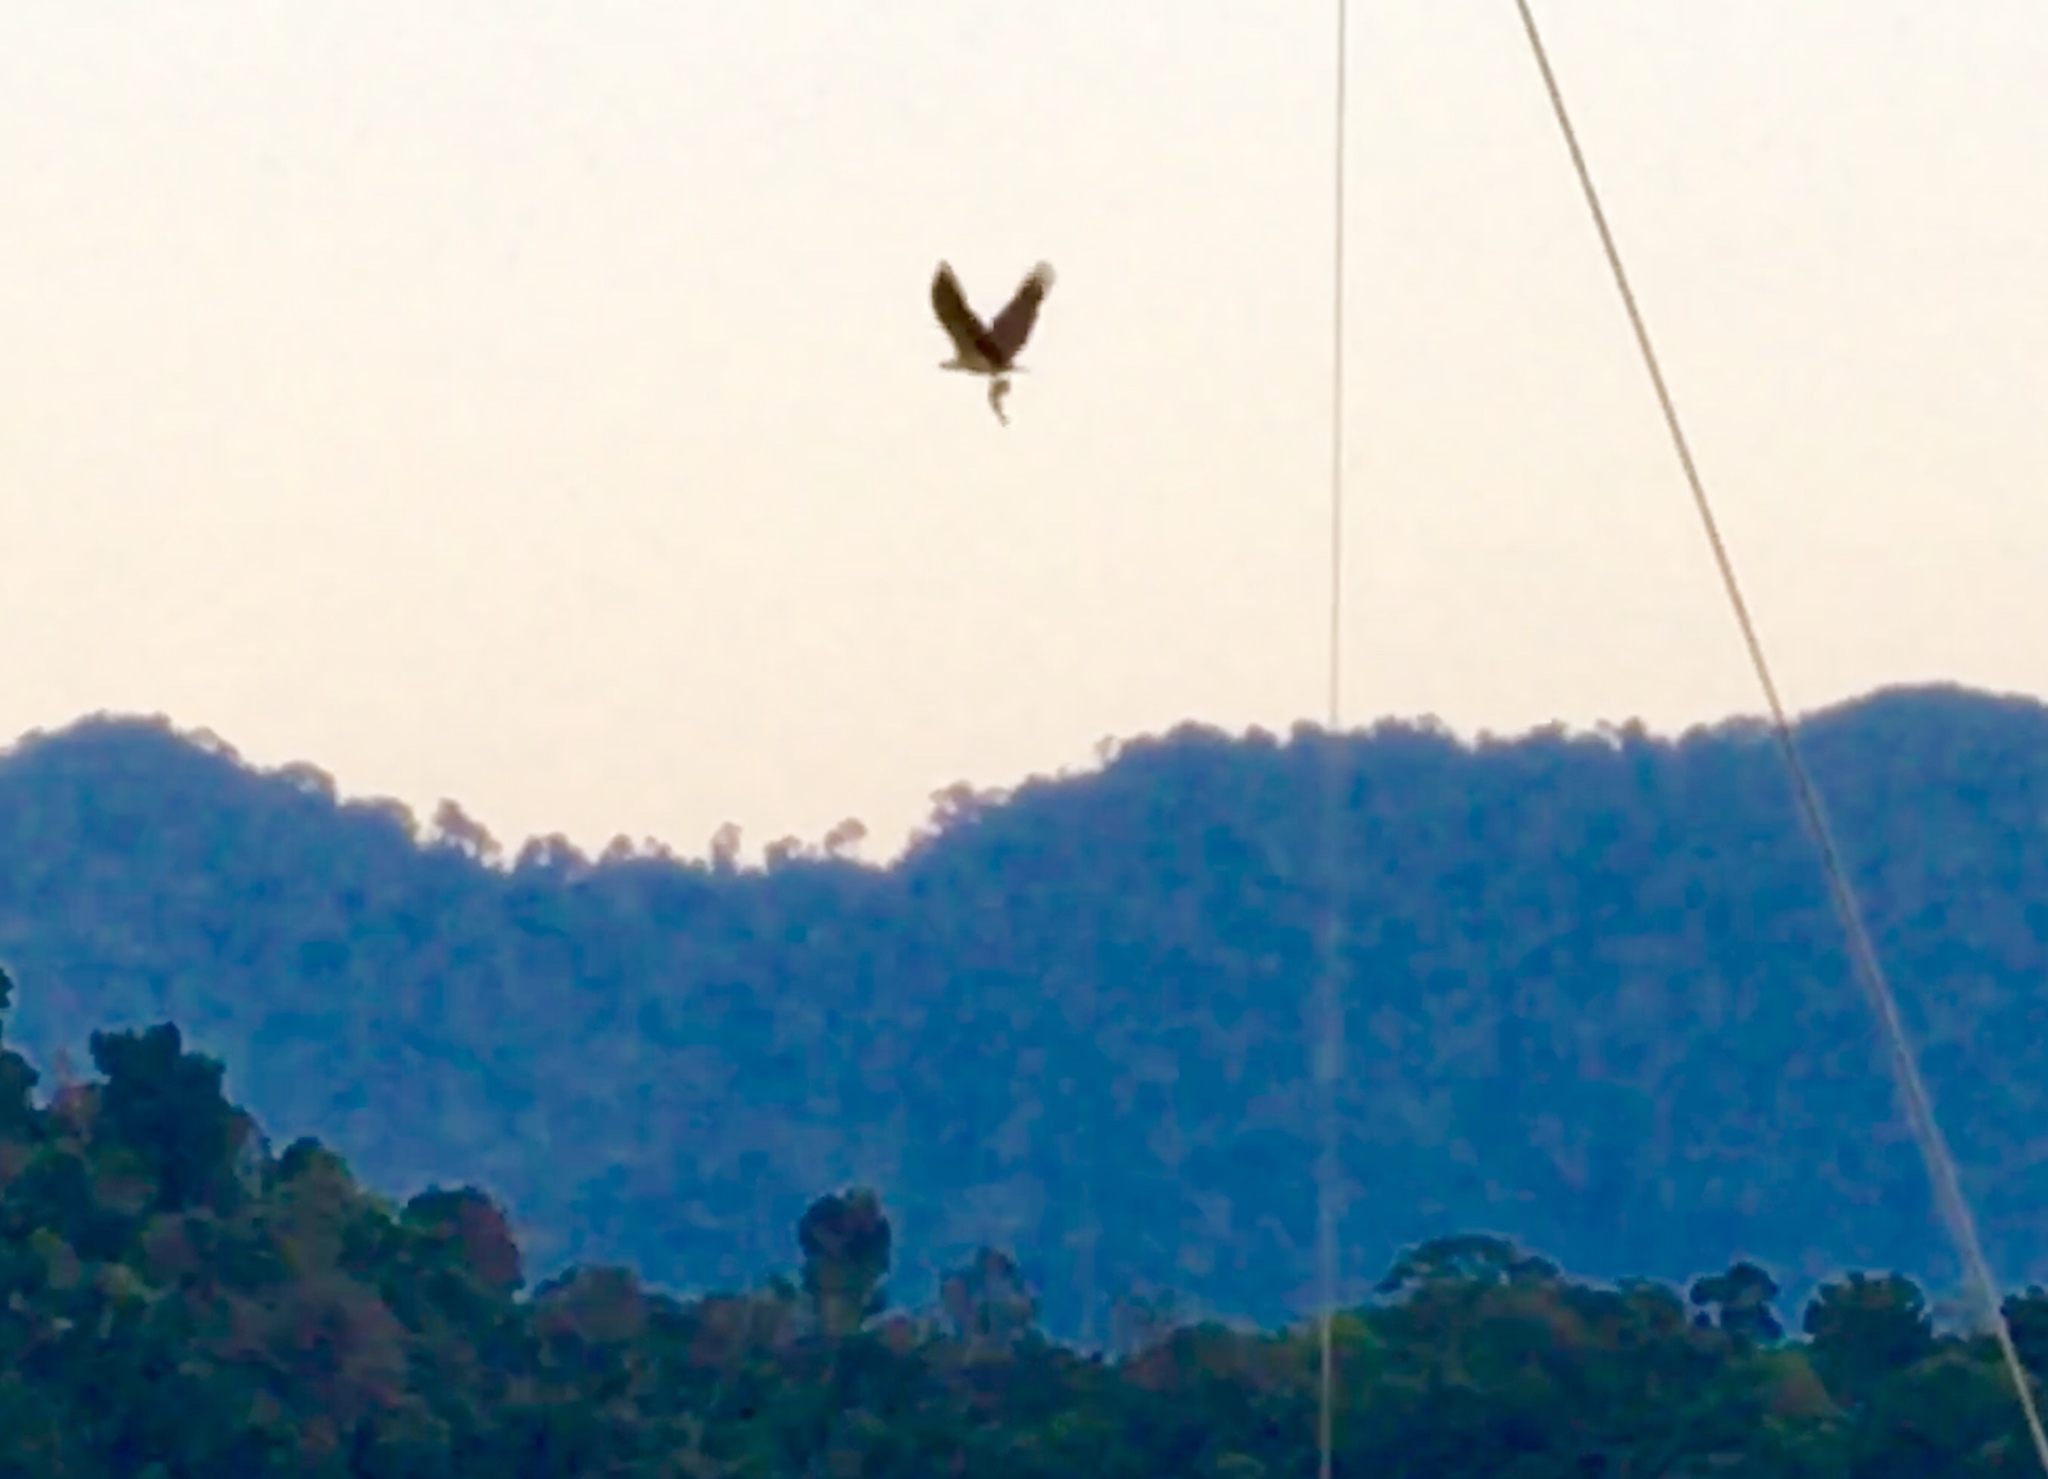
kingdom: Animalia
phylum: Chordata
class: Aves
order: Accipitriformes
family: Accipitridae
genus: Haliaeetus
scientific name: Haliaeetus leucogaster
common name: White-bellied sea eagle
